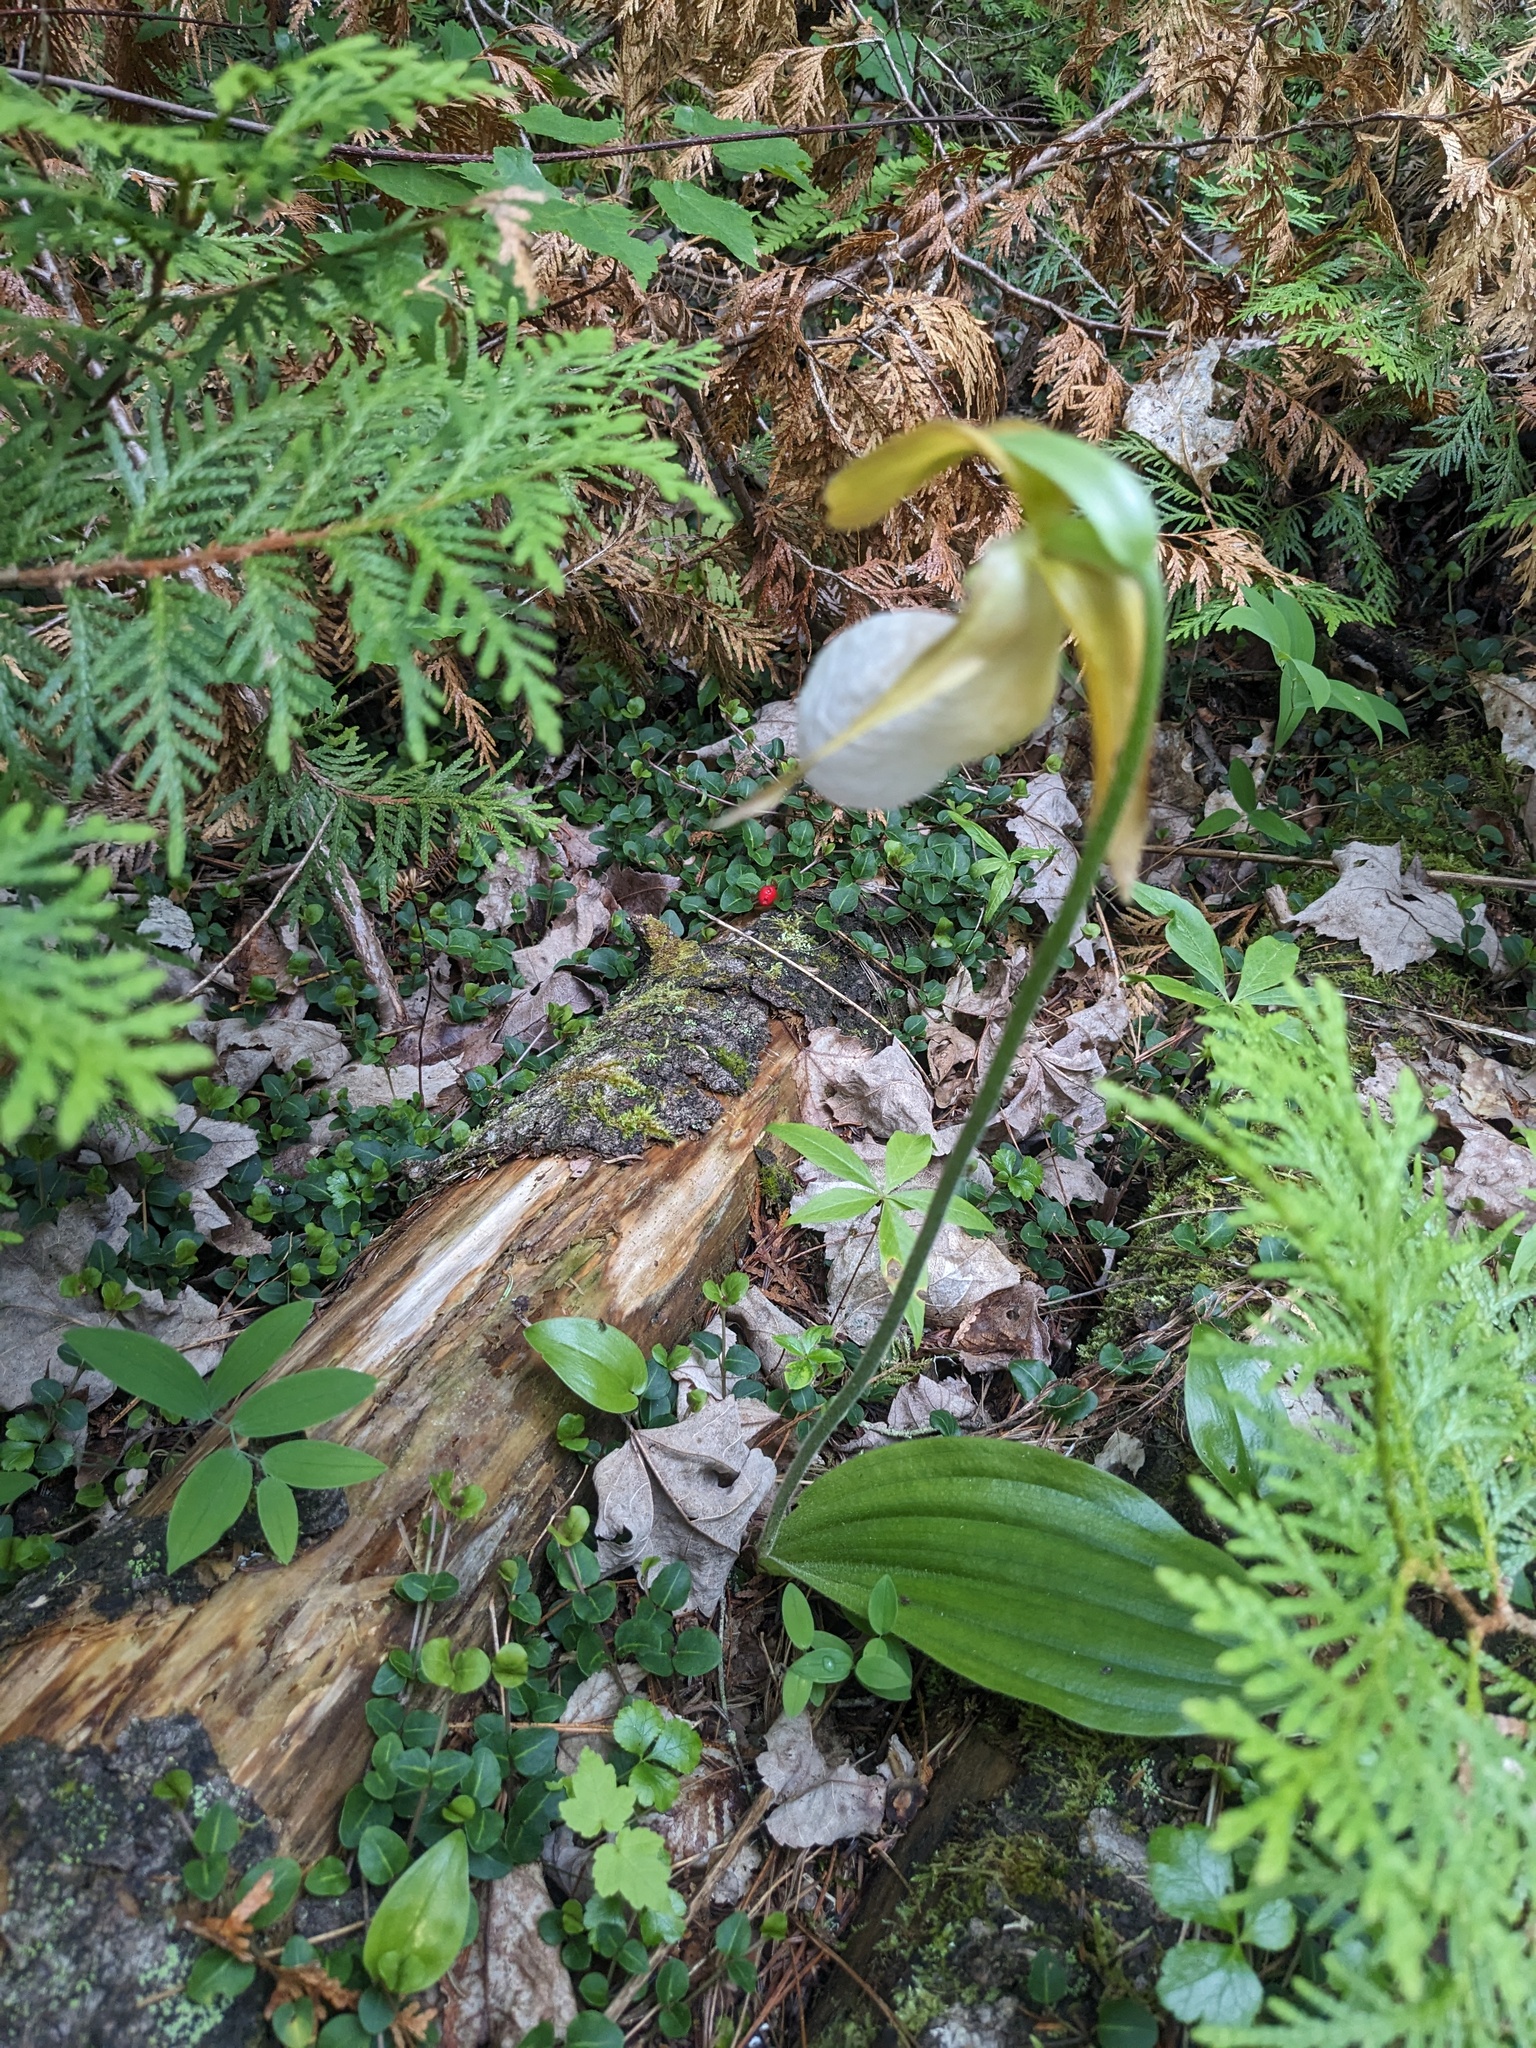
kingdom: Plantae
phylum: Tracheophyta
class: Liliopsida
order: Asparagales
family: Orchidaceae
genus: Cypripedium
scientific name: Cypripedium acaule
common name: Pink lady's-slipper
